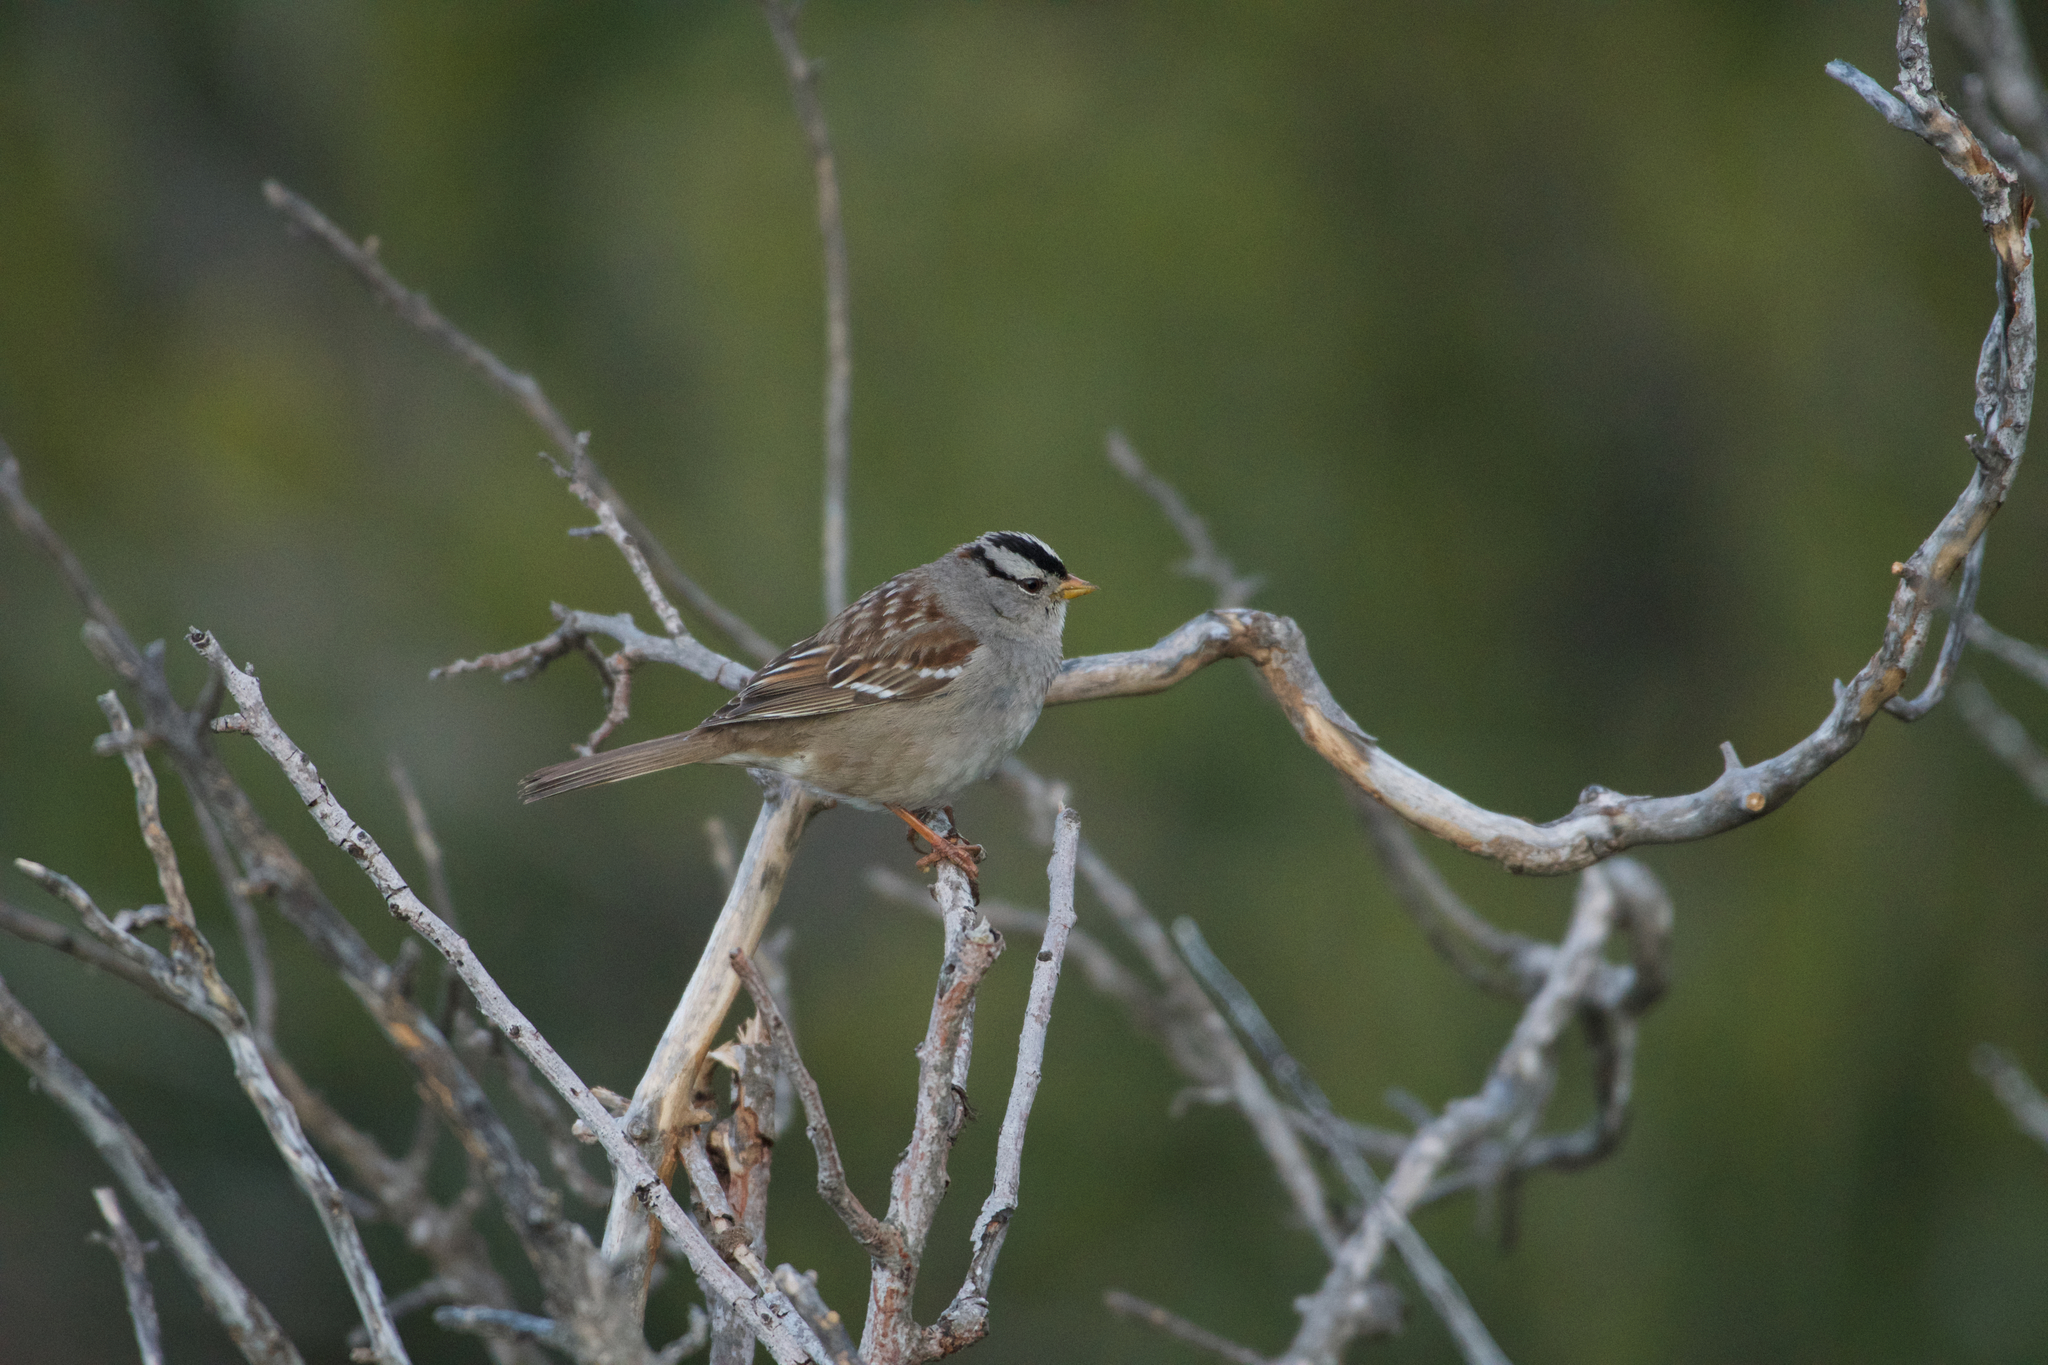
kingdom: Animalia
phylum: Chordata
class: Aves
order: Passeriformes
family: Passerellidae
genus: Zonotrichia
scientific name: Zonotrichia leucophrys
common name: White-crowned sparrow
